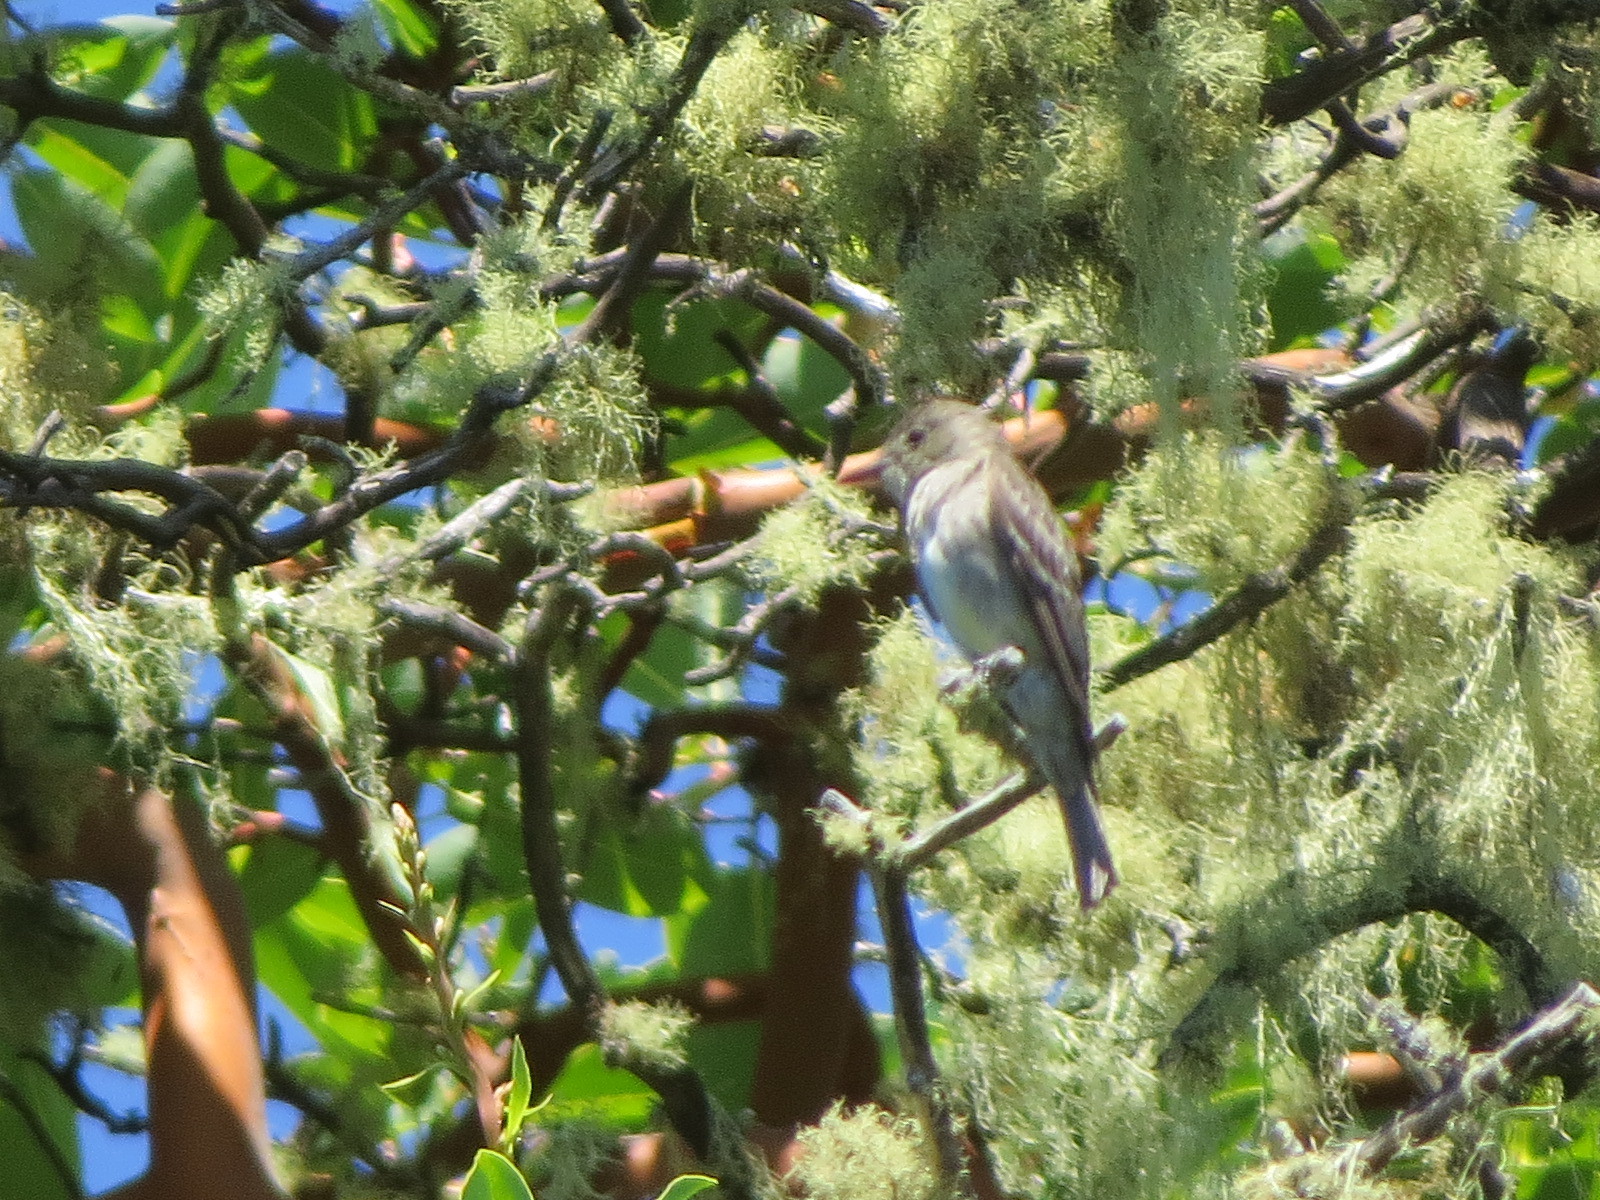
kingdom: Animalia
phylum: Chordata
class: Aves
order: Passeriformes
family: Tyrannidae
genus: Contopus
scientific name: Contopus sordidulus
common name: Western wood-pewee
